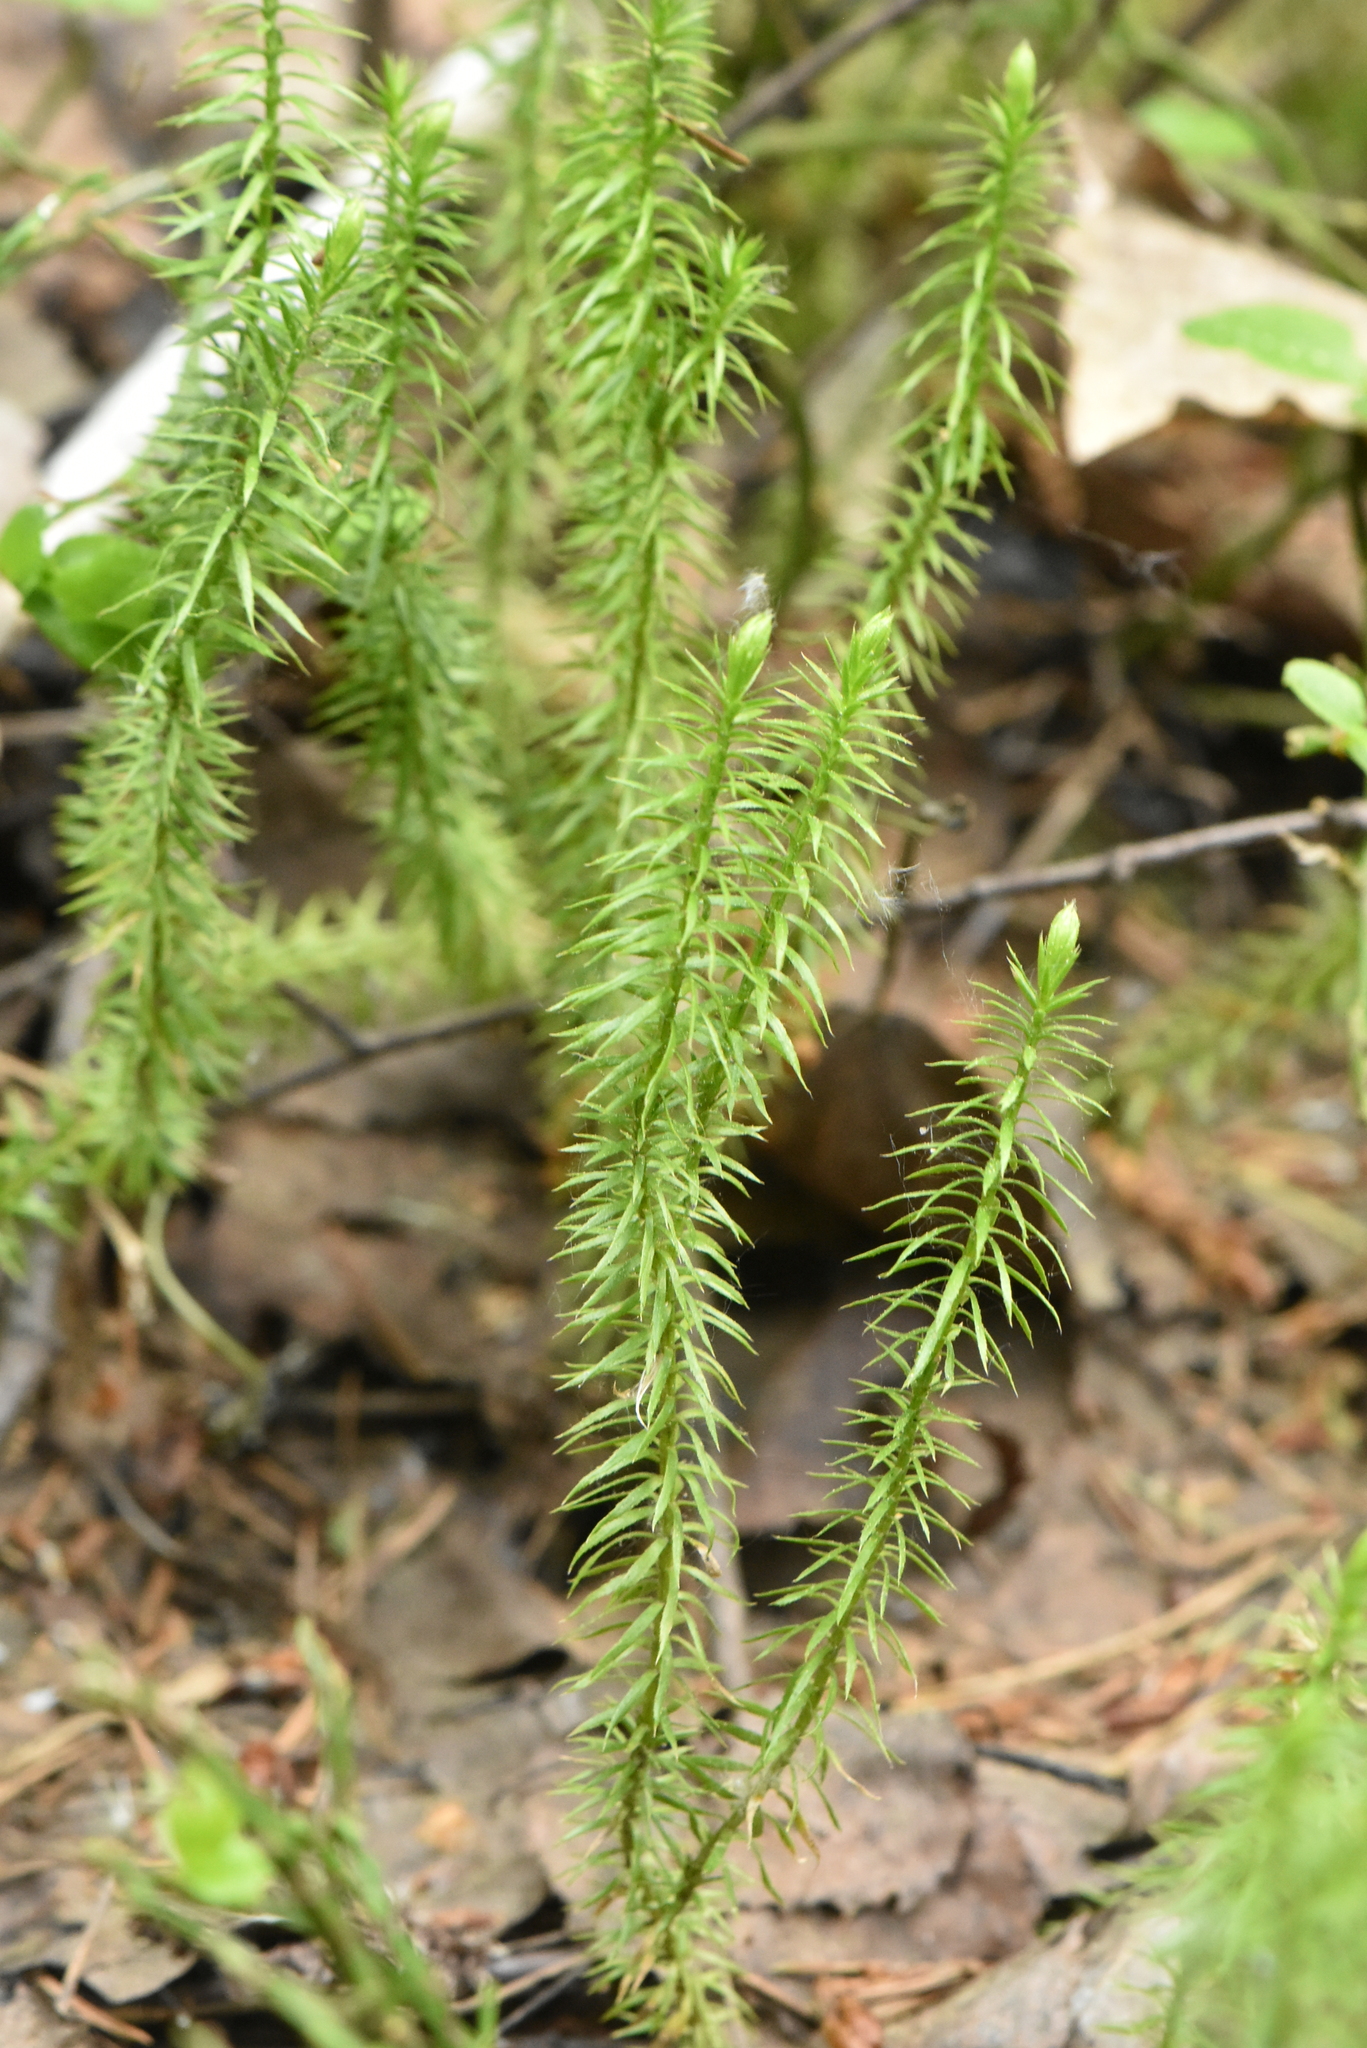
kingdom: Plantae
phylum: Tracheophyta
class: Lycopodiopsida
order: Lycopodiales
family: Lycopodiaceae
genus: Spinulum
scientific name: Spinulum annotinum
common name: Interrupted club-moss
